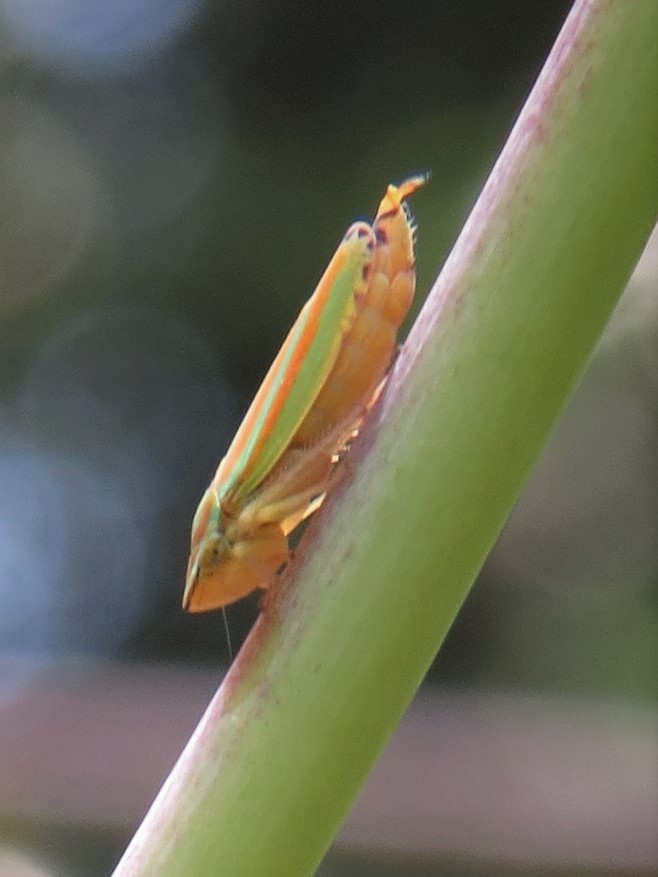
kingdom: Animalia
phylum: Arthropoda
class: Insecta
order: Hemiptera
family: Cicadellidae
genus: Graphocephala
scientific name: Graphocephala versuta
